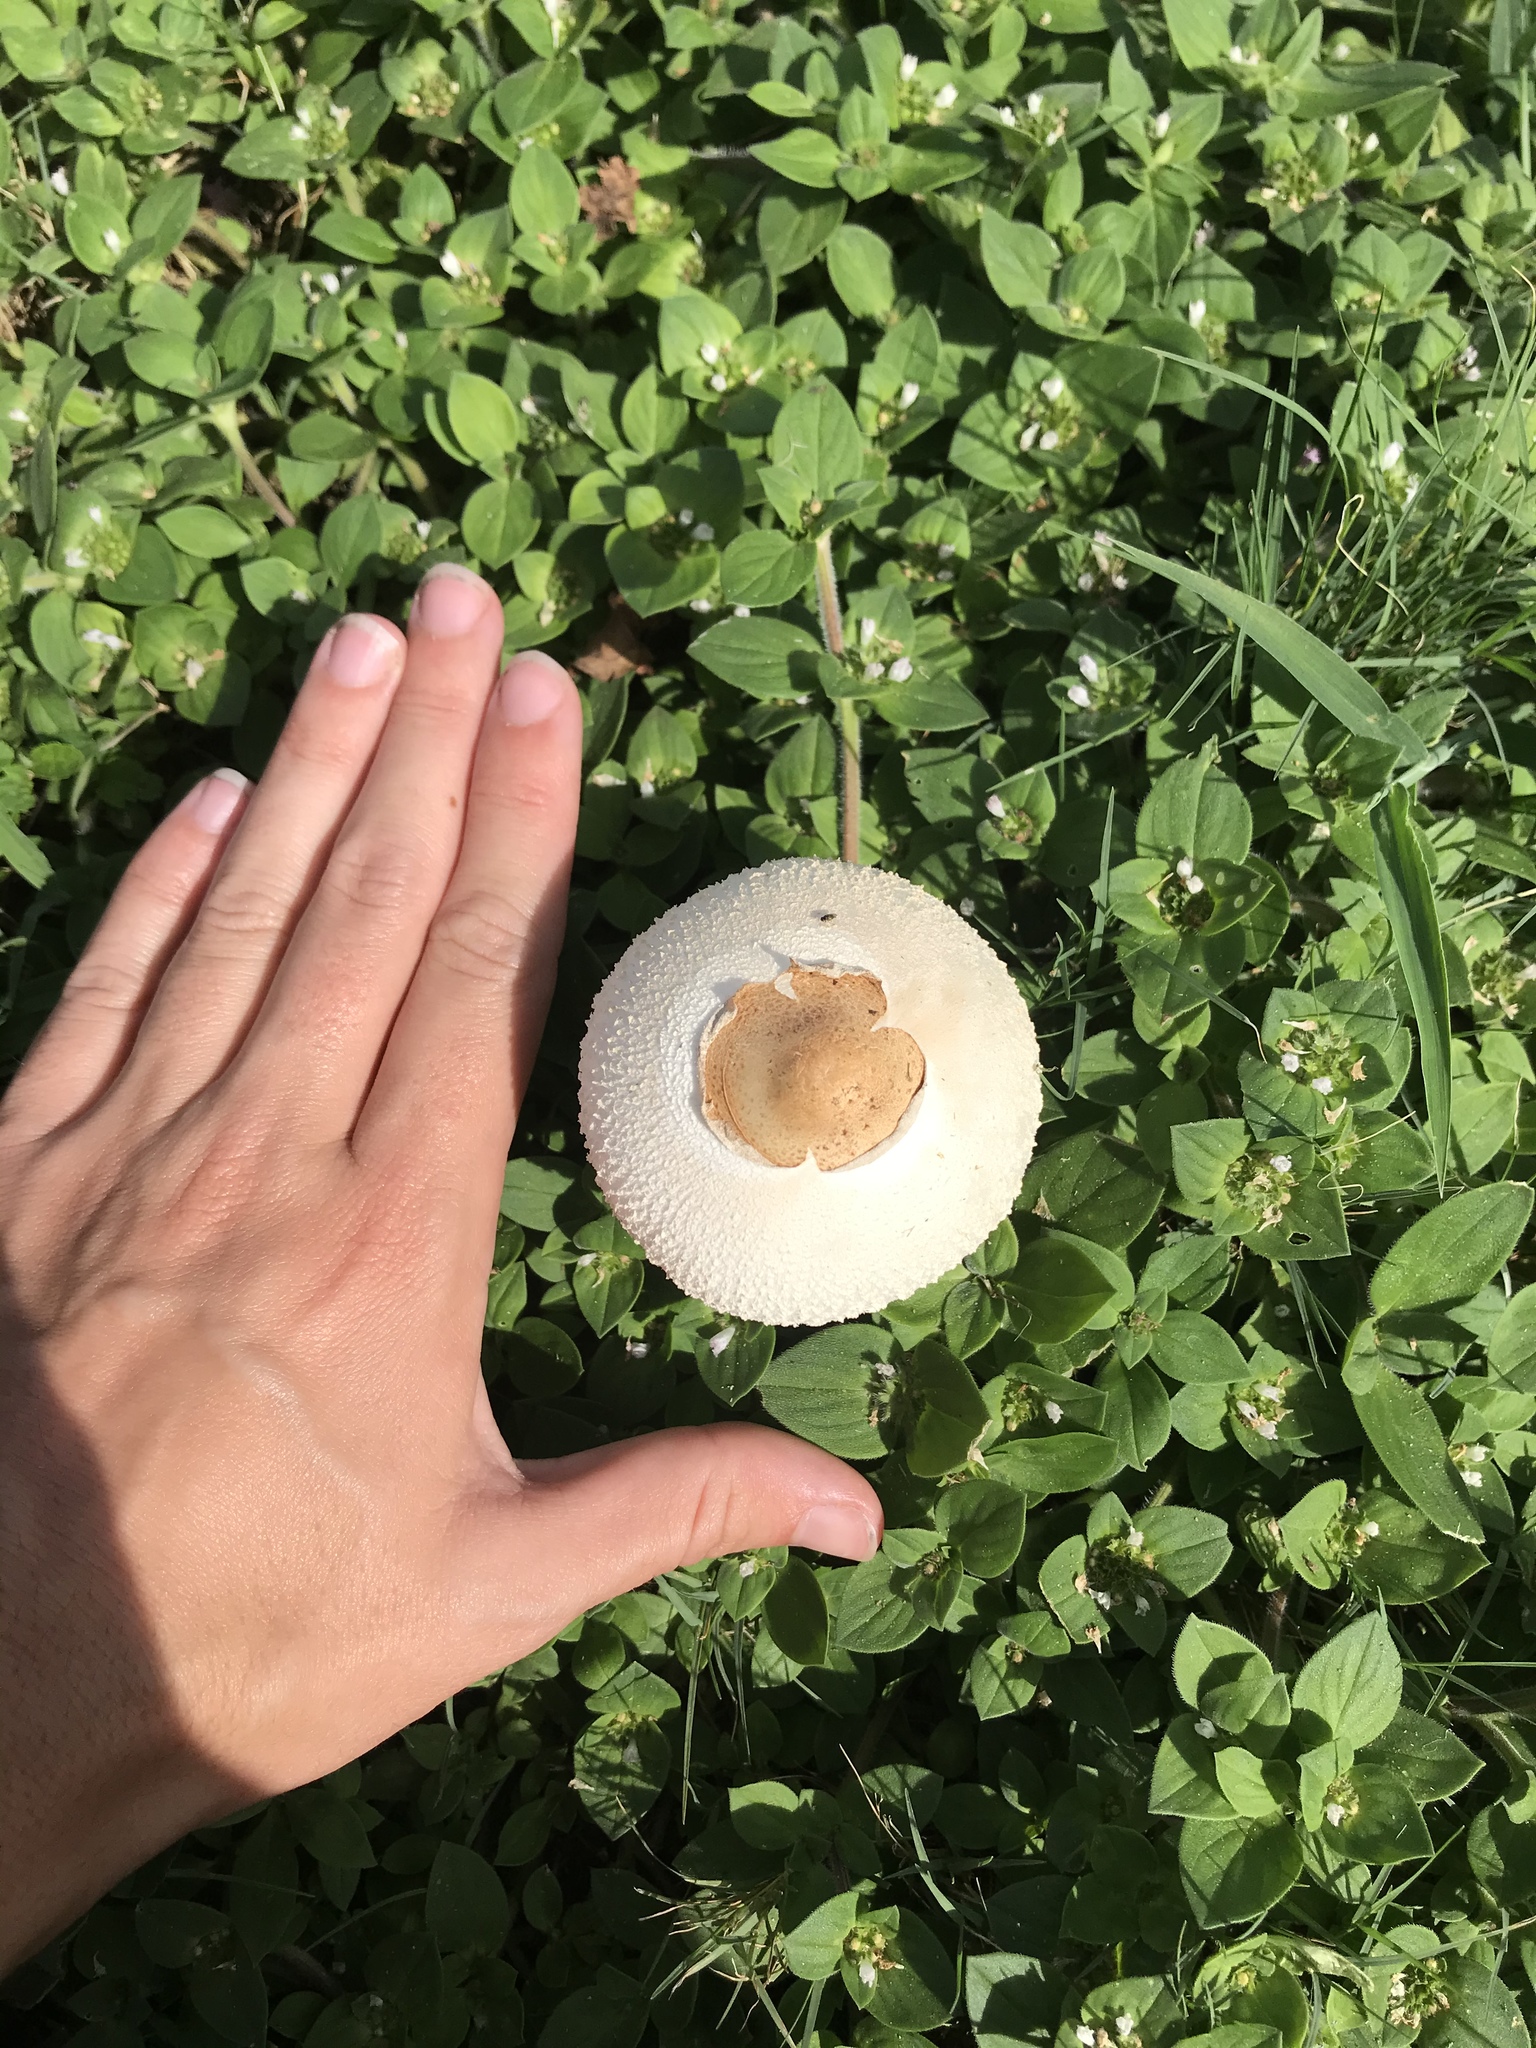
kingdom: Fungi
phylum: Basidiomycota
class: Agaricomycetes
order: Agaricales
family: Agaricaceae
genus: Chlorophyllum
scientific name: Chlorophyllum molybdites
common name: False parasol
